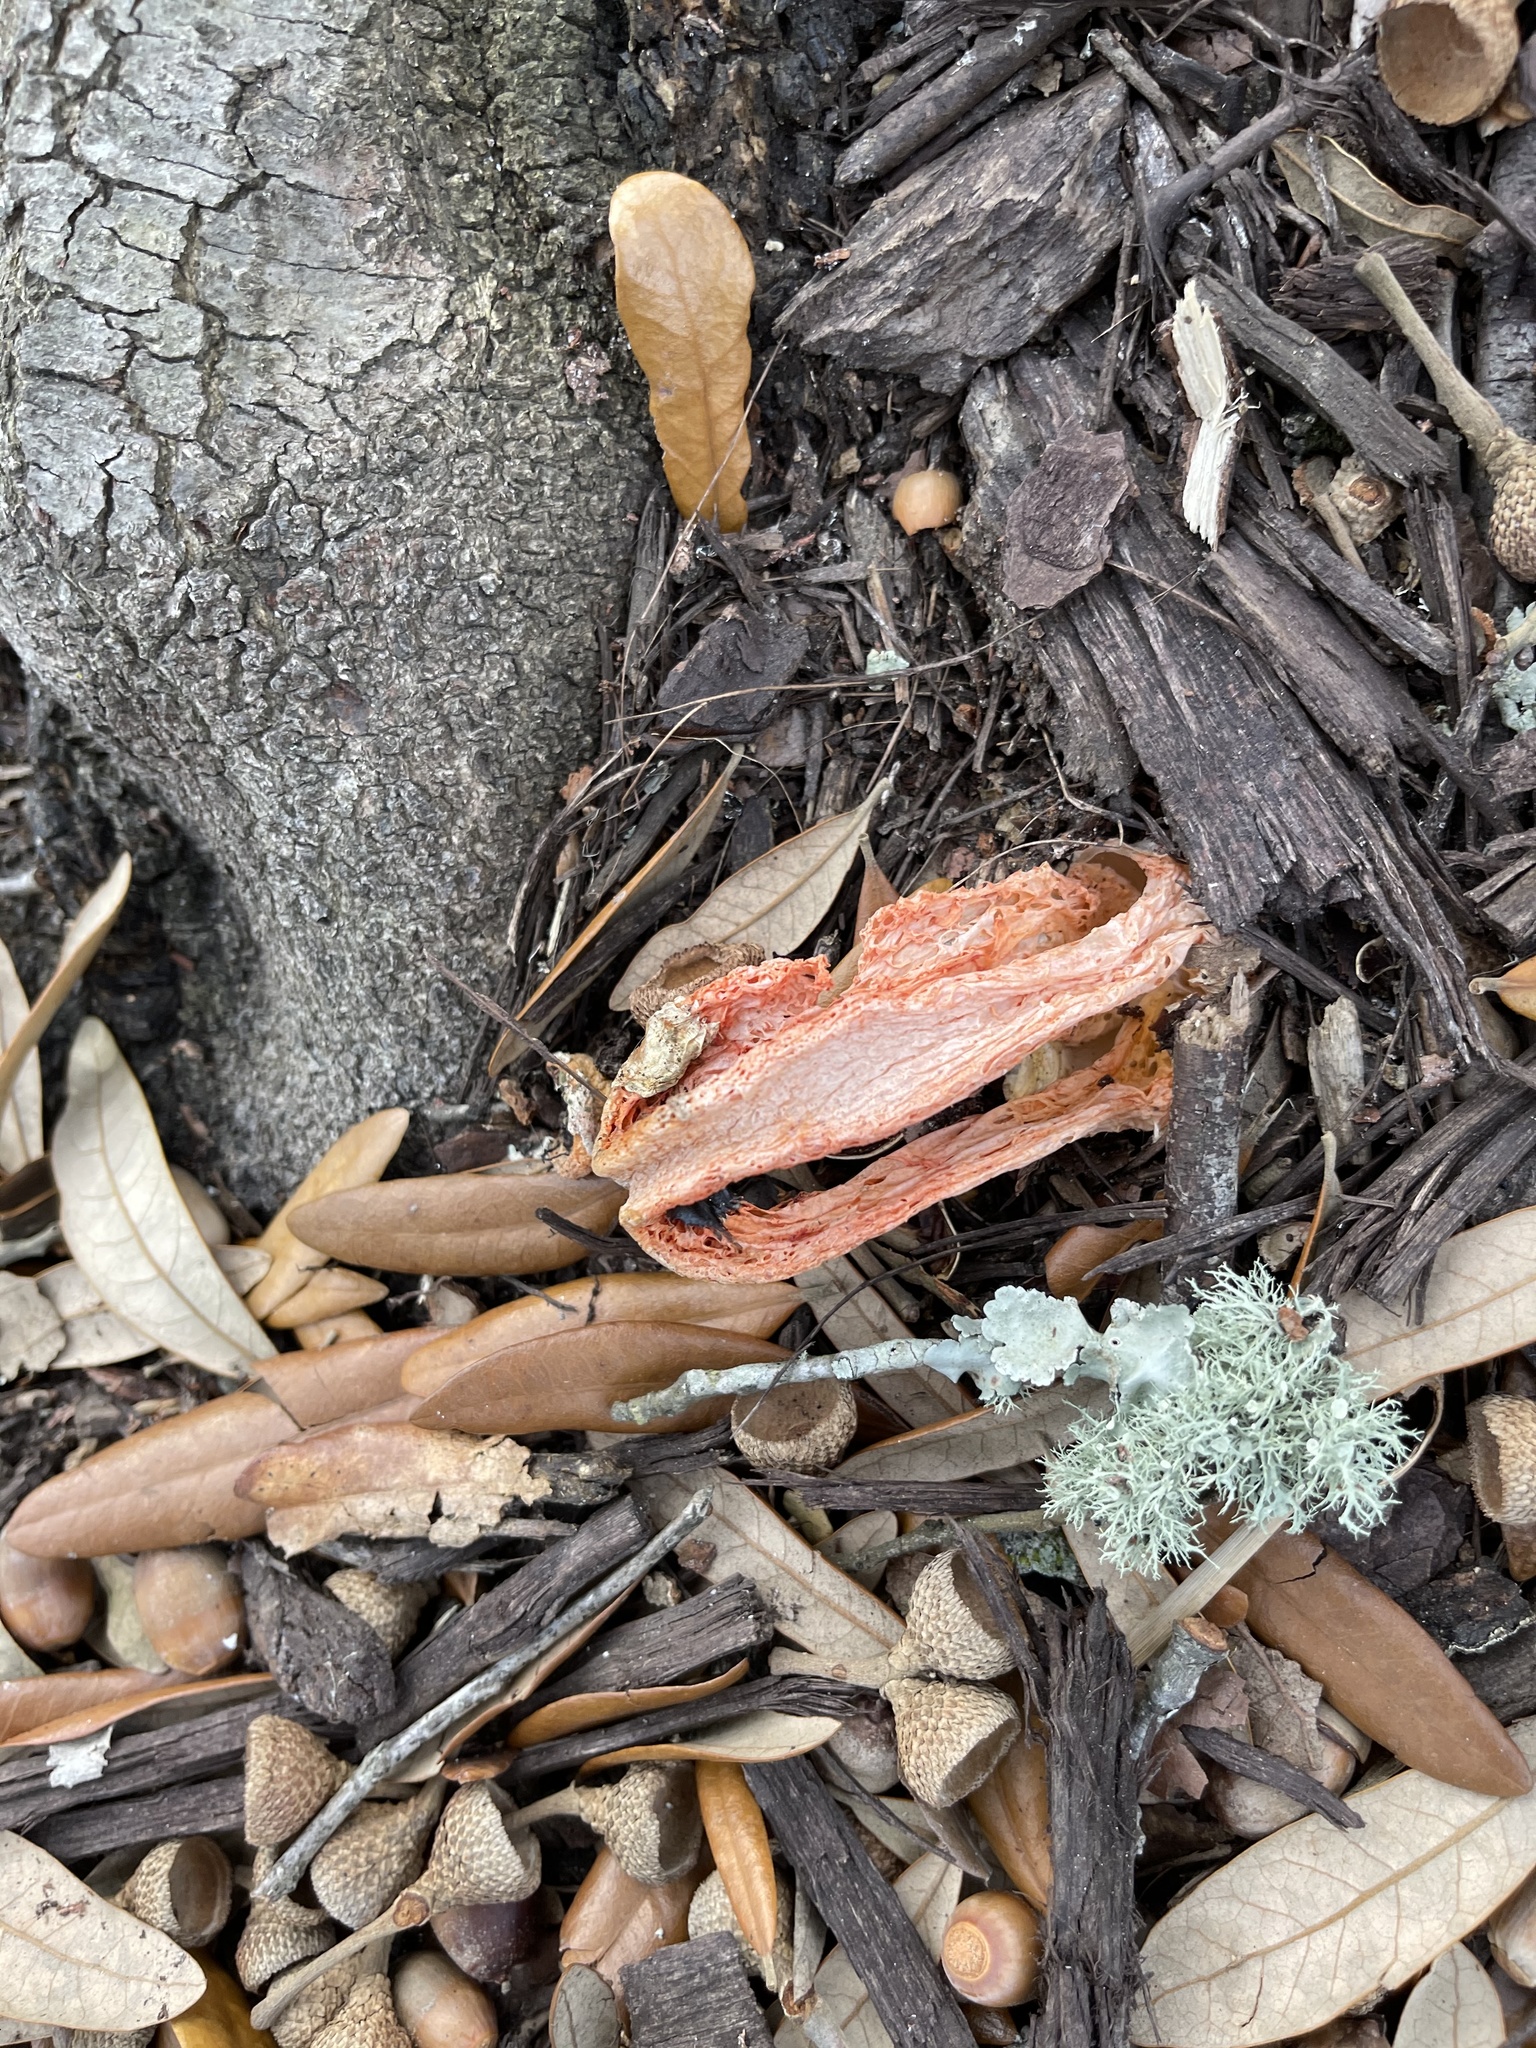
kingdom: Fungi
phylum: Basidiomycota
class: Agaricomycetes
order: Phallales
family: Phallaceae
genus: Clathrus
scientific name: Clathrus columnatus
